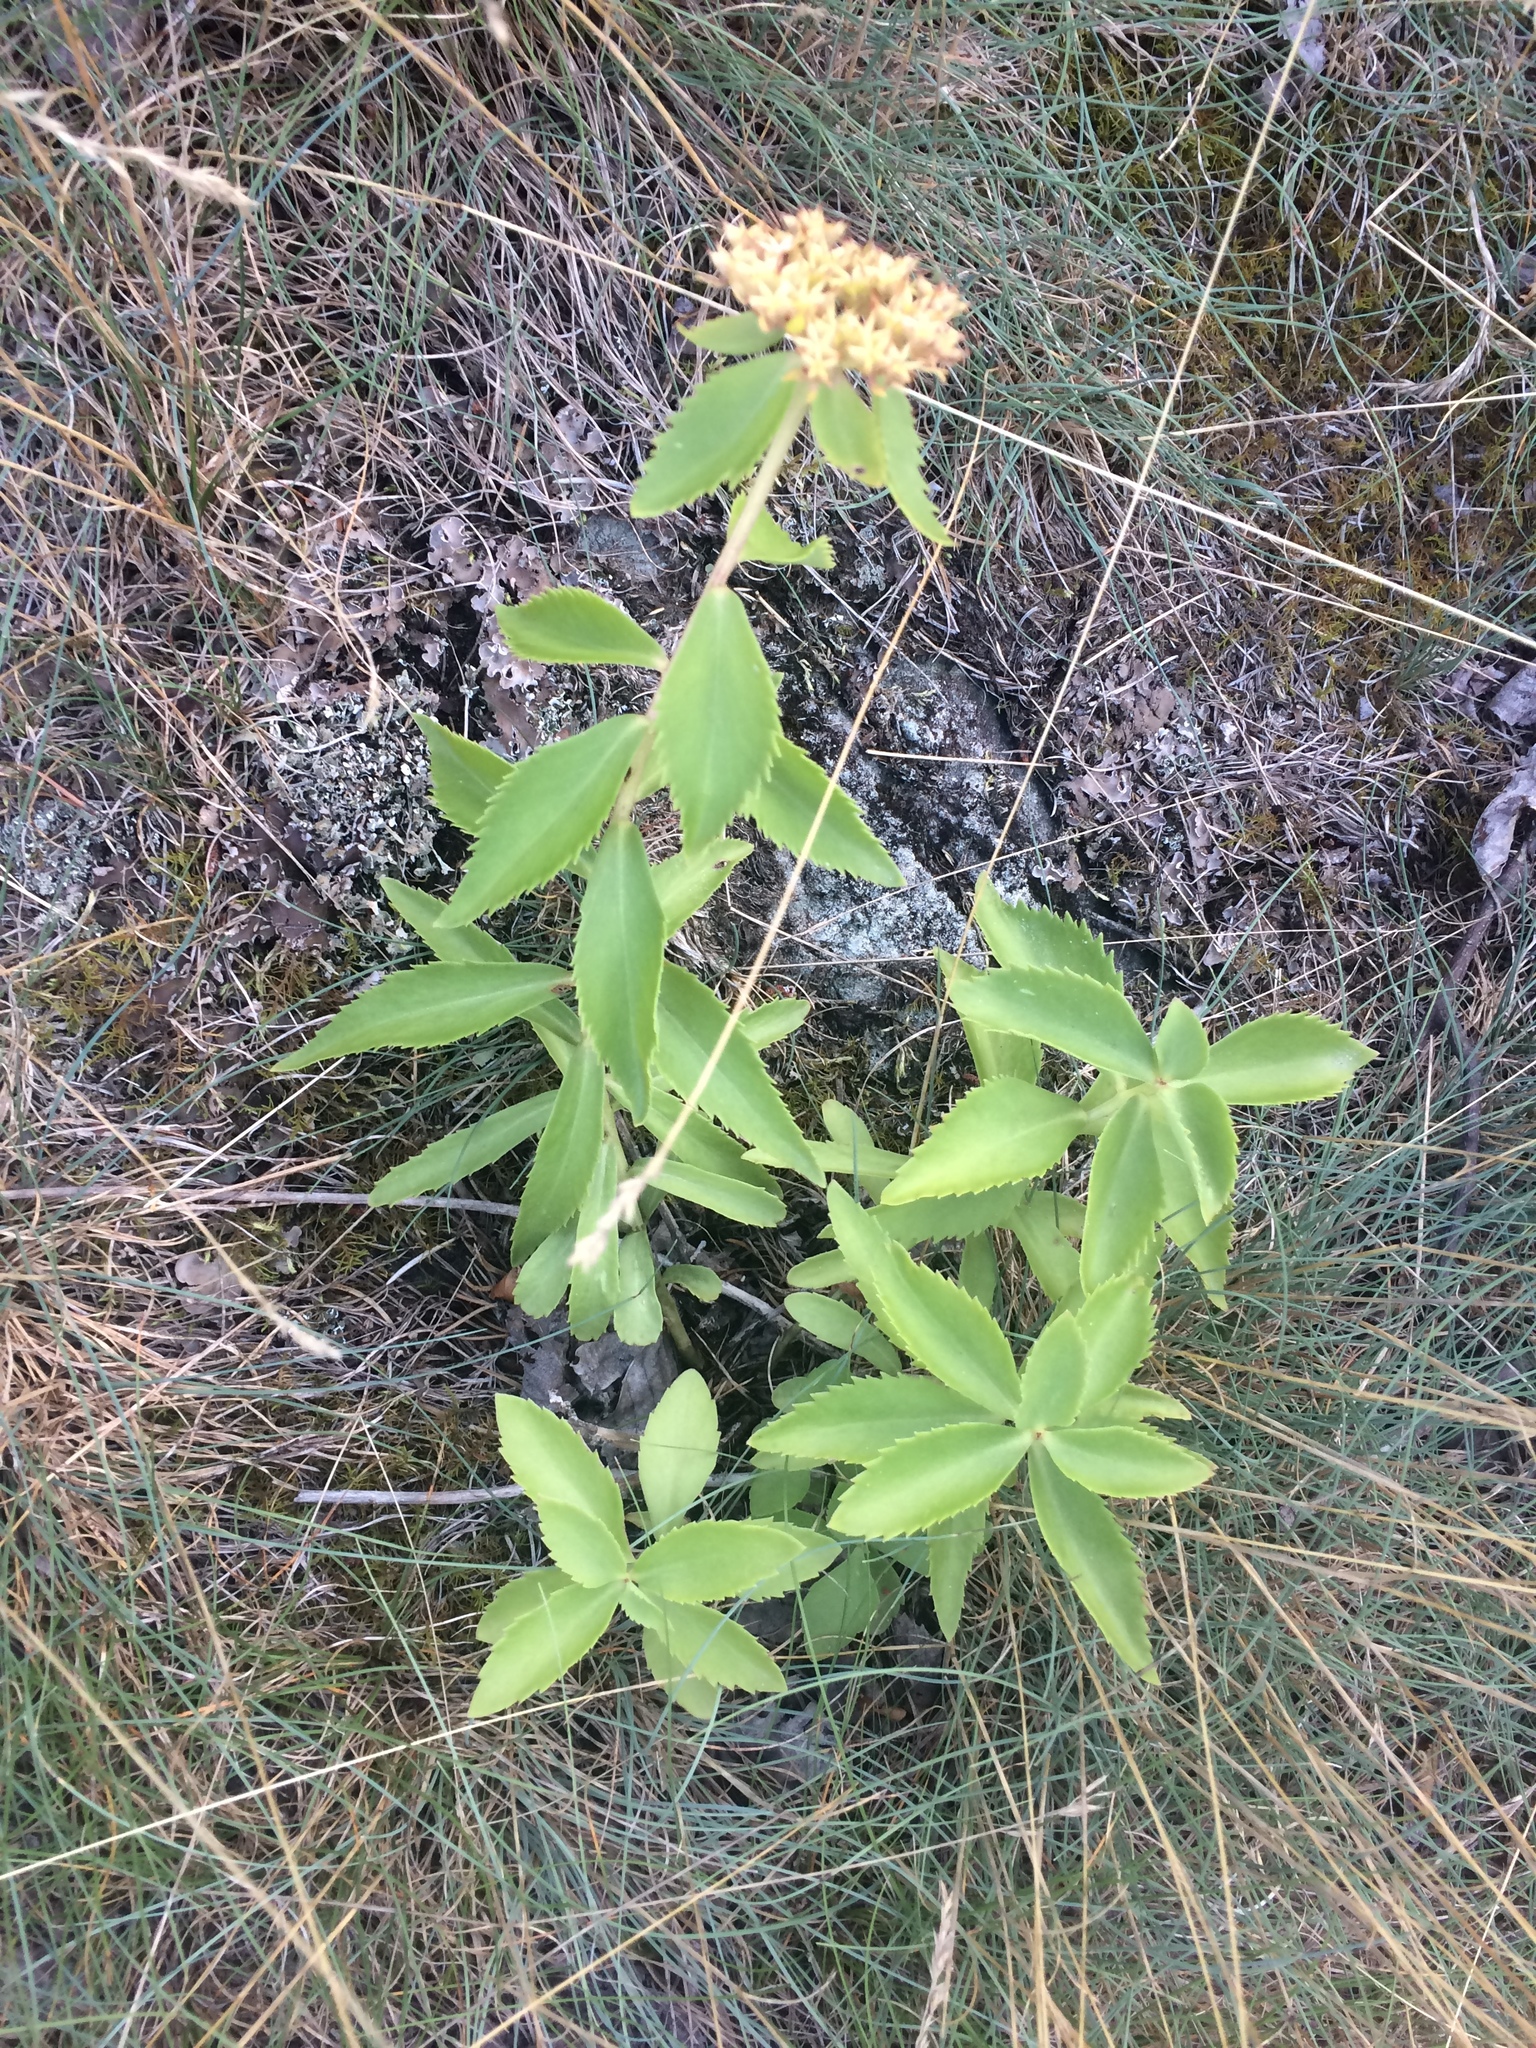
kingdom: Plantae
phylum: Tracheophyta
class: Magnoliopsida
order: Saxifragales
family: Crassulaceae
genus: Phedimus
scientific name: Phedimus aizoon
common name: Orpin aizoon
